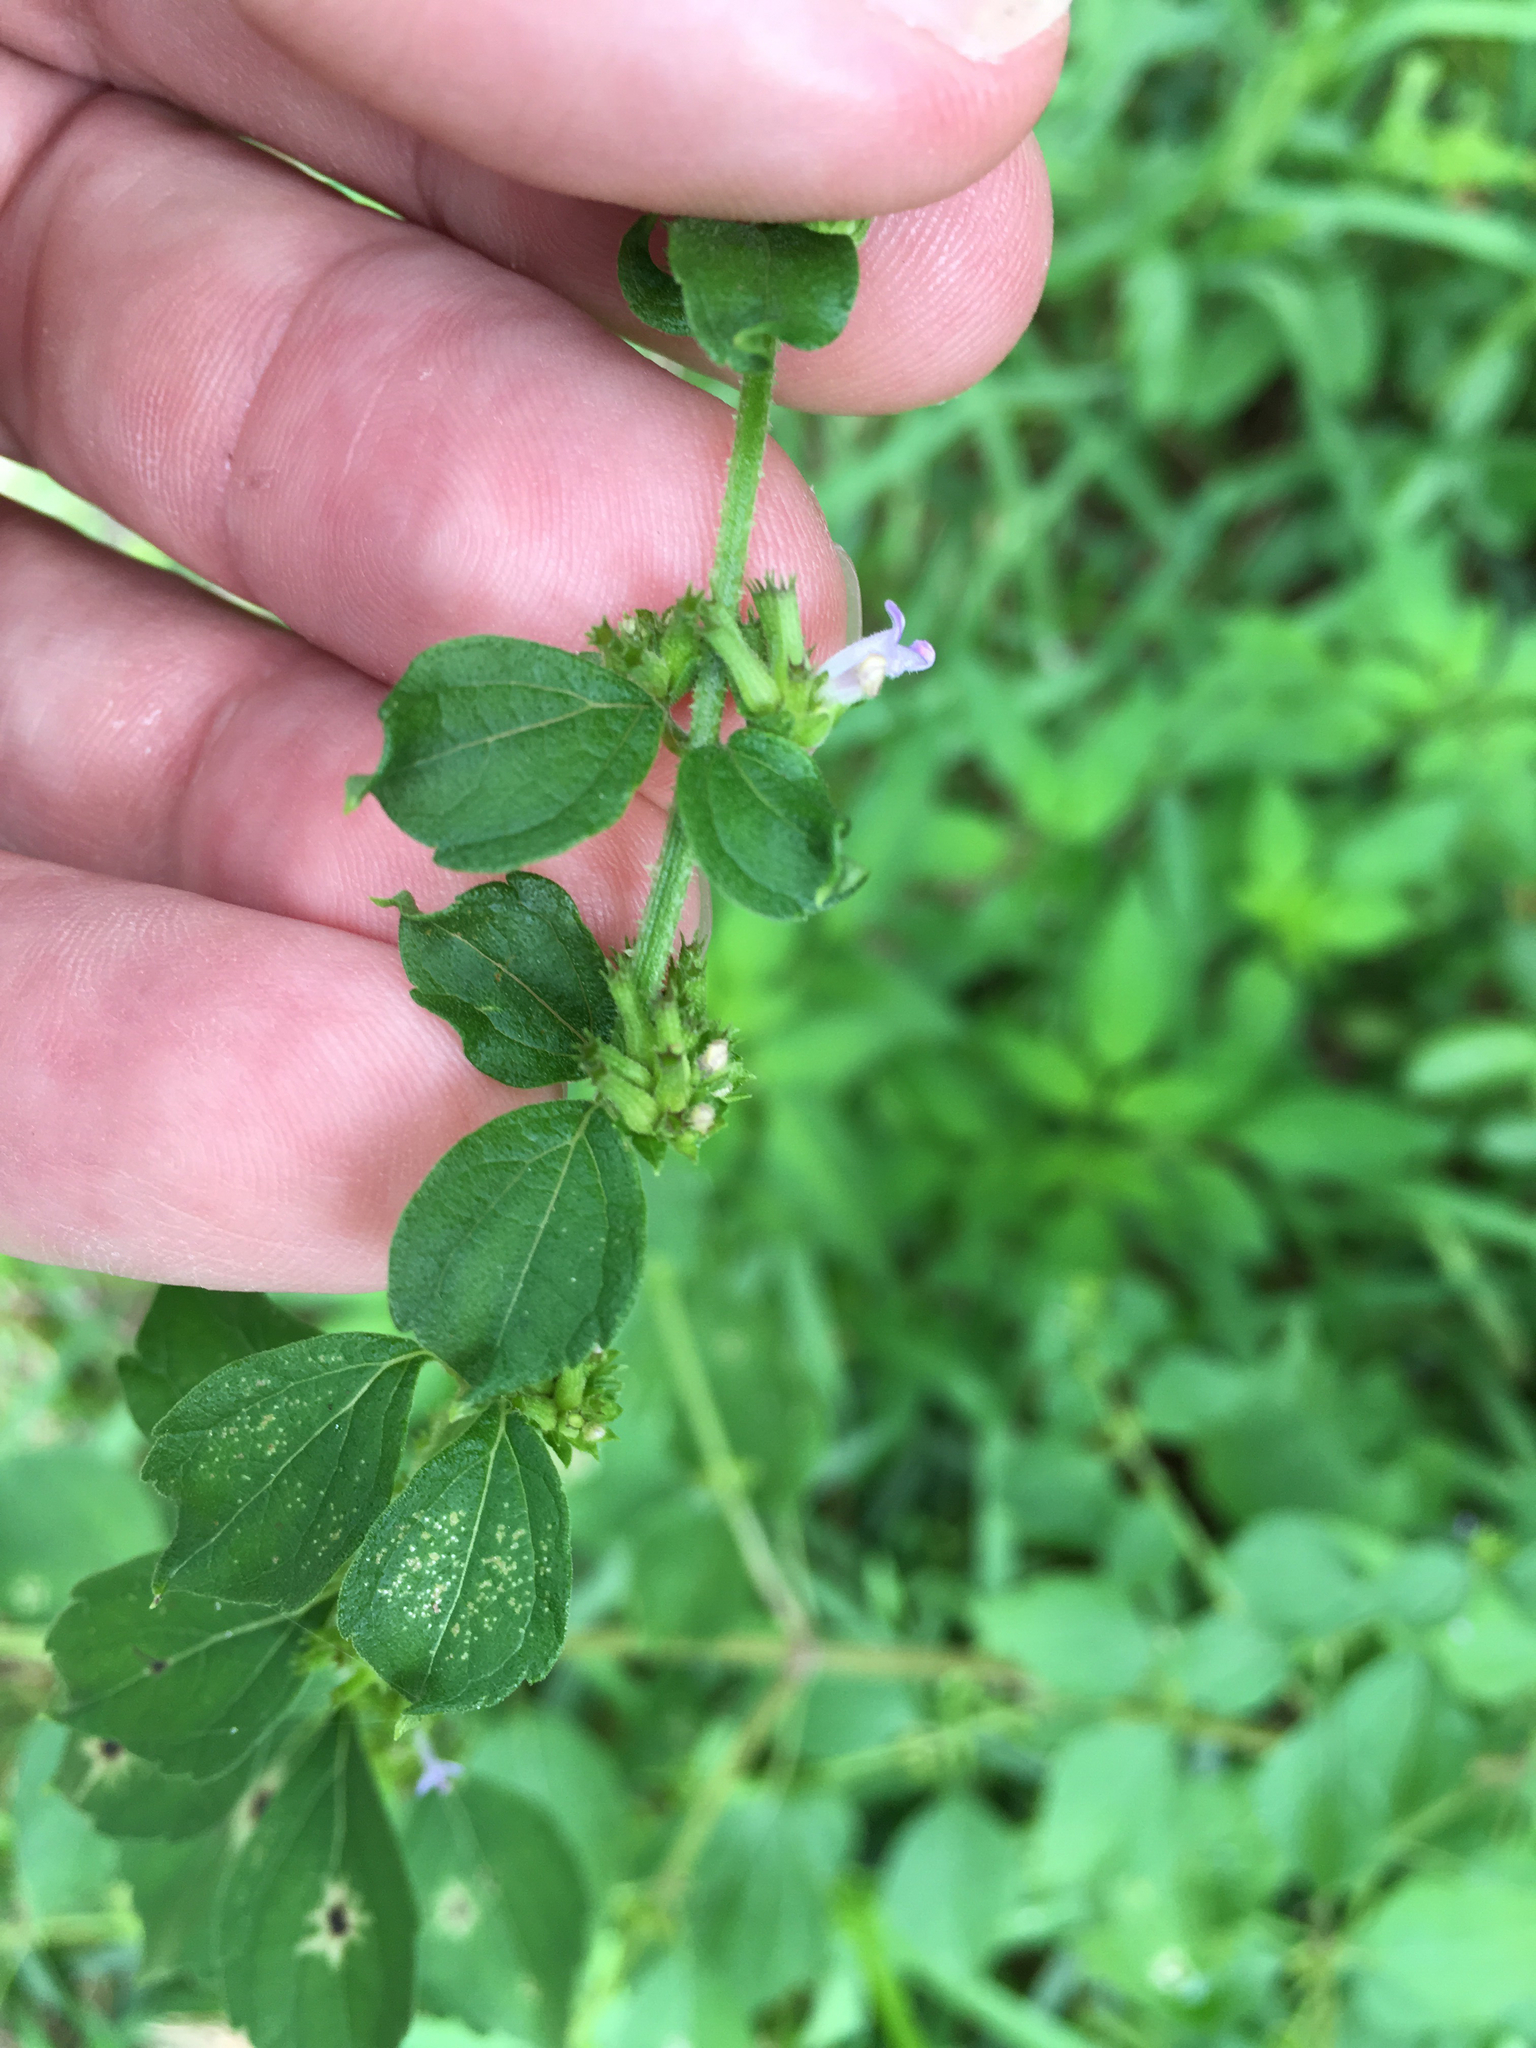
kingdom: Plantae
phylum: Tracheophyta
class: Magnoliopsida
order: Lamiales
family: Lamiaceae
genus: Cantinoa
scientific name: Cantinoa mutabilis
